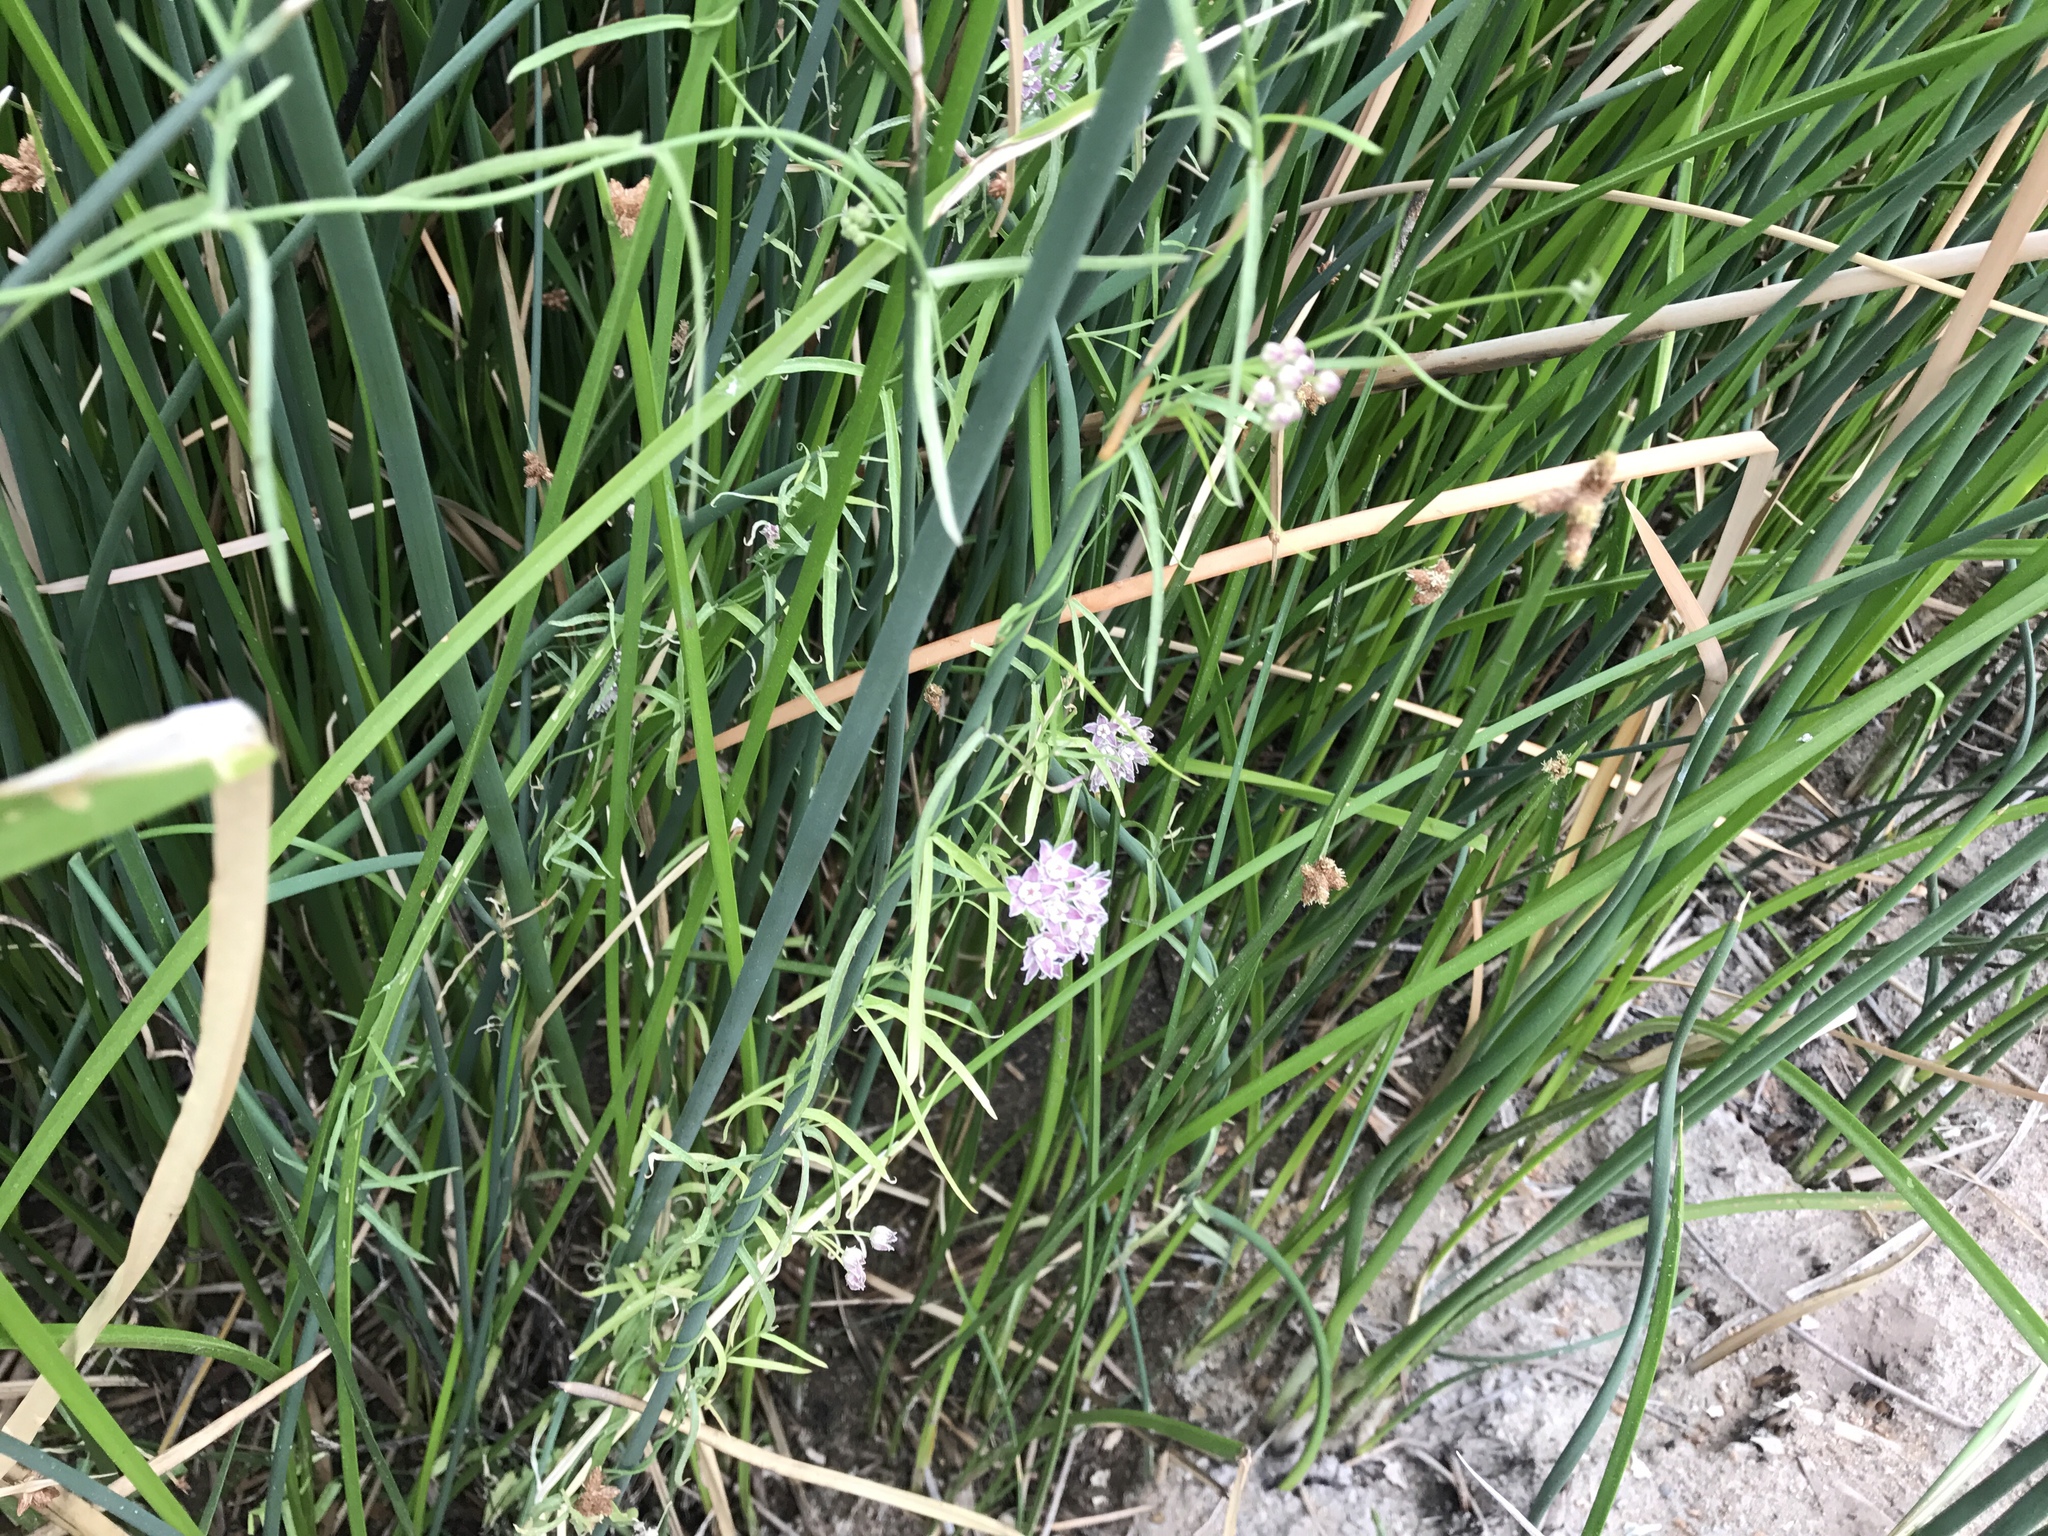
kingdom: Plantae
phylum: Tracheophyta
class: Magnoliopsida
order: Gentianales
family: Apocynaceae
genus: Funastrum
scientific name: Funastrum heterophyllum
